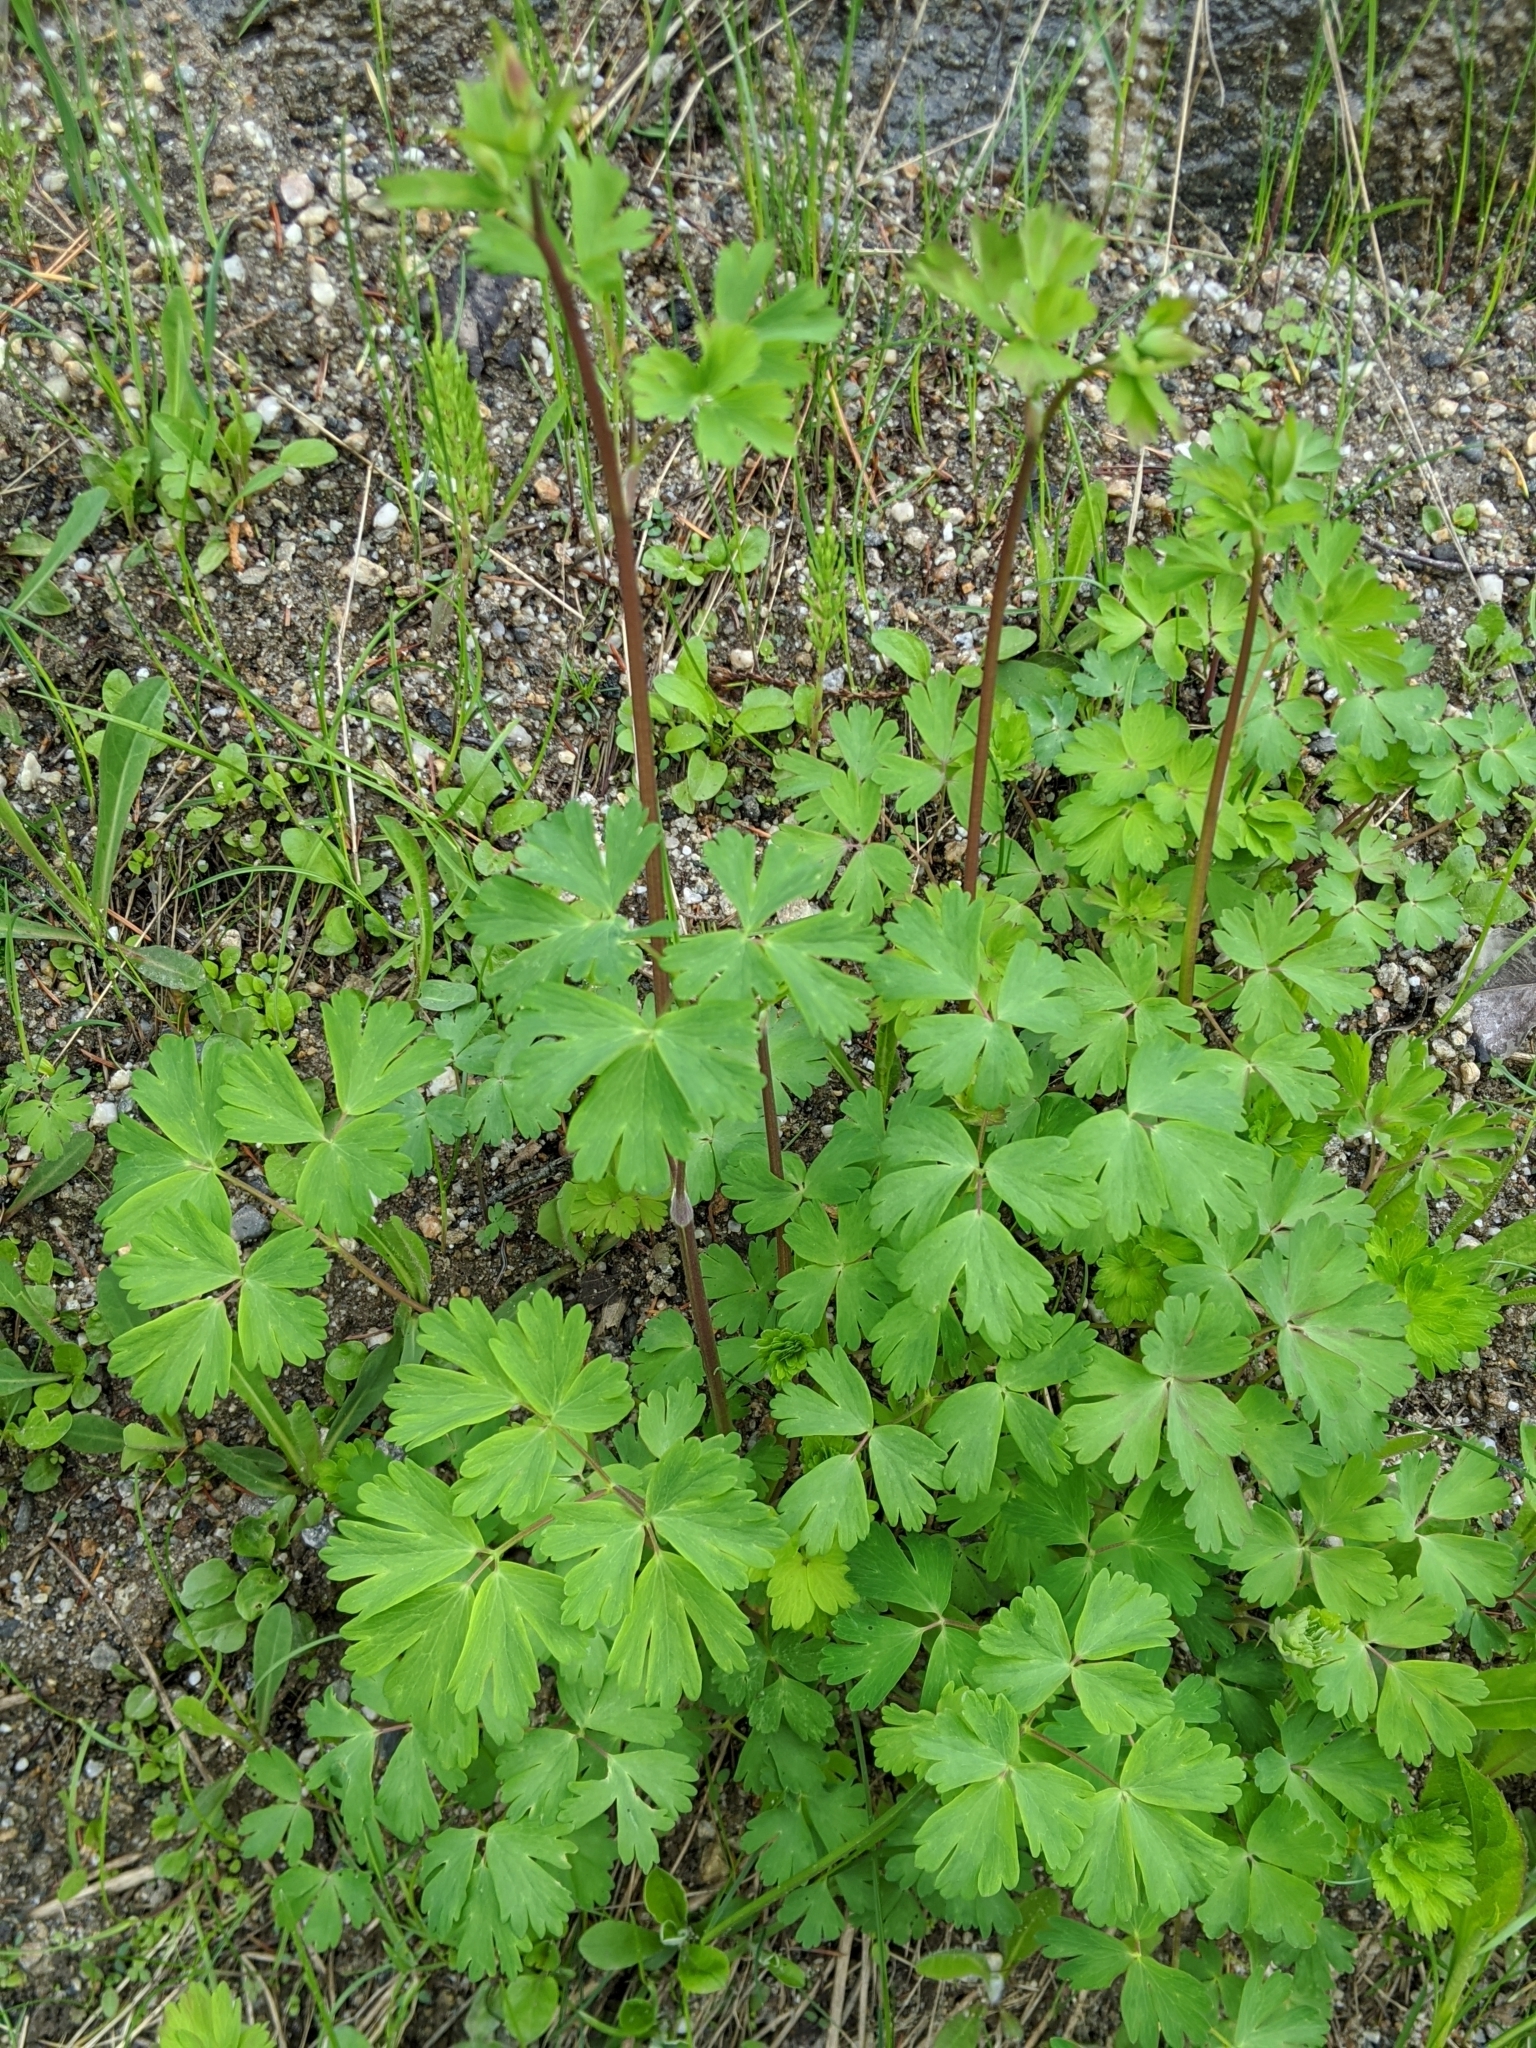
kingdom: Plantae
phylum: Tracheophyta
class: Magnoliopsida
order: Ranunculales
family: Ranunculaceae
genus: Aquilegia
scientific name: Aquilegia formosa
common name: Sitka columbine
